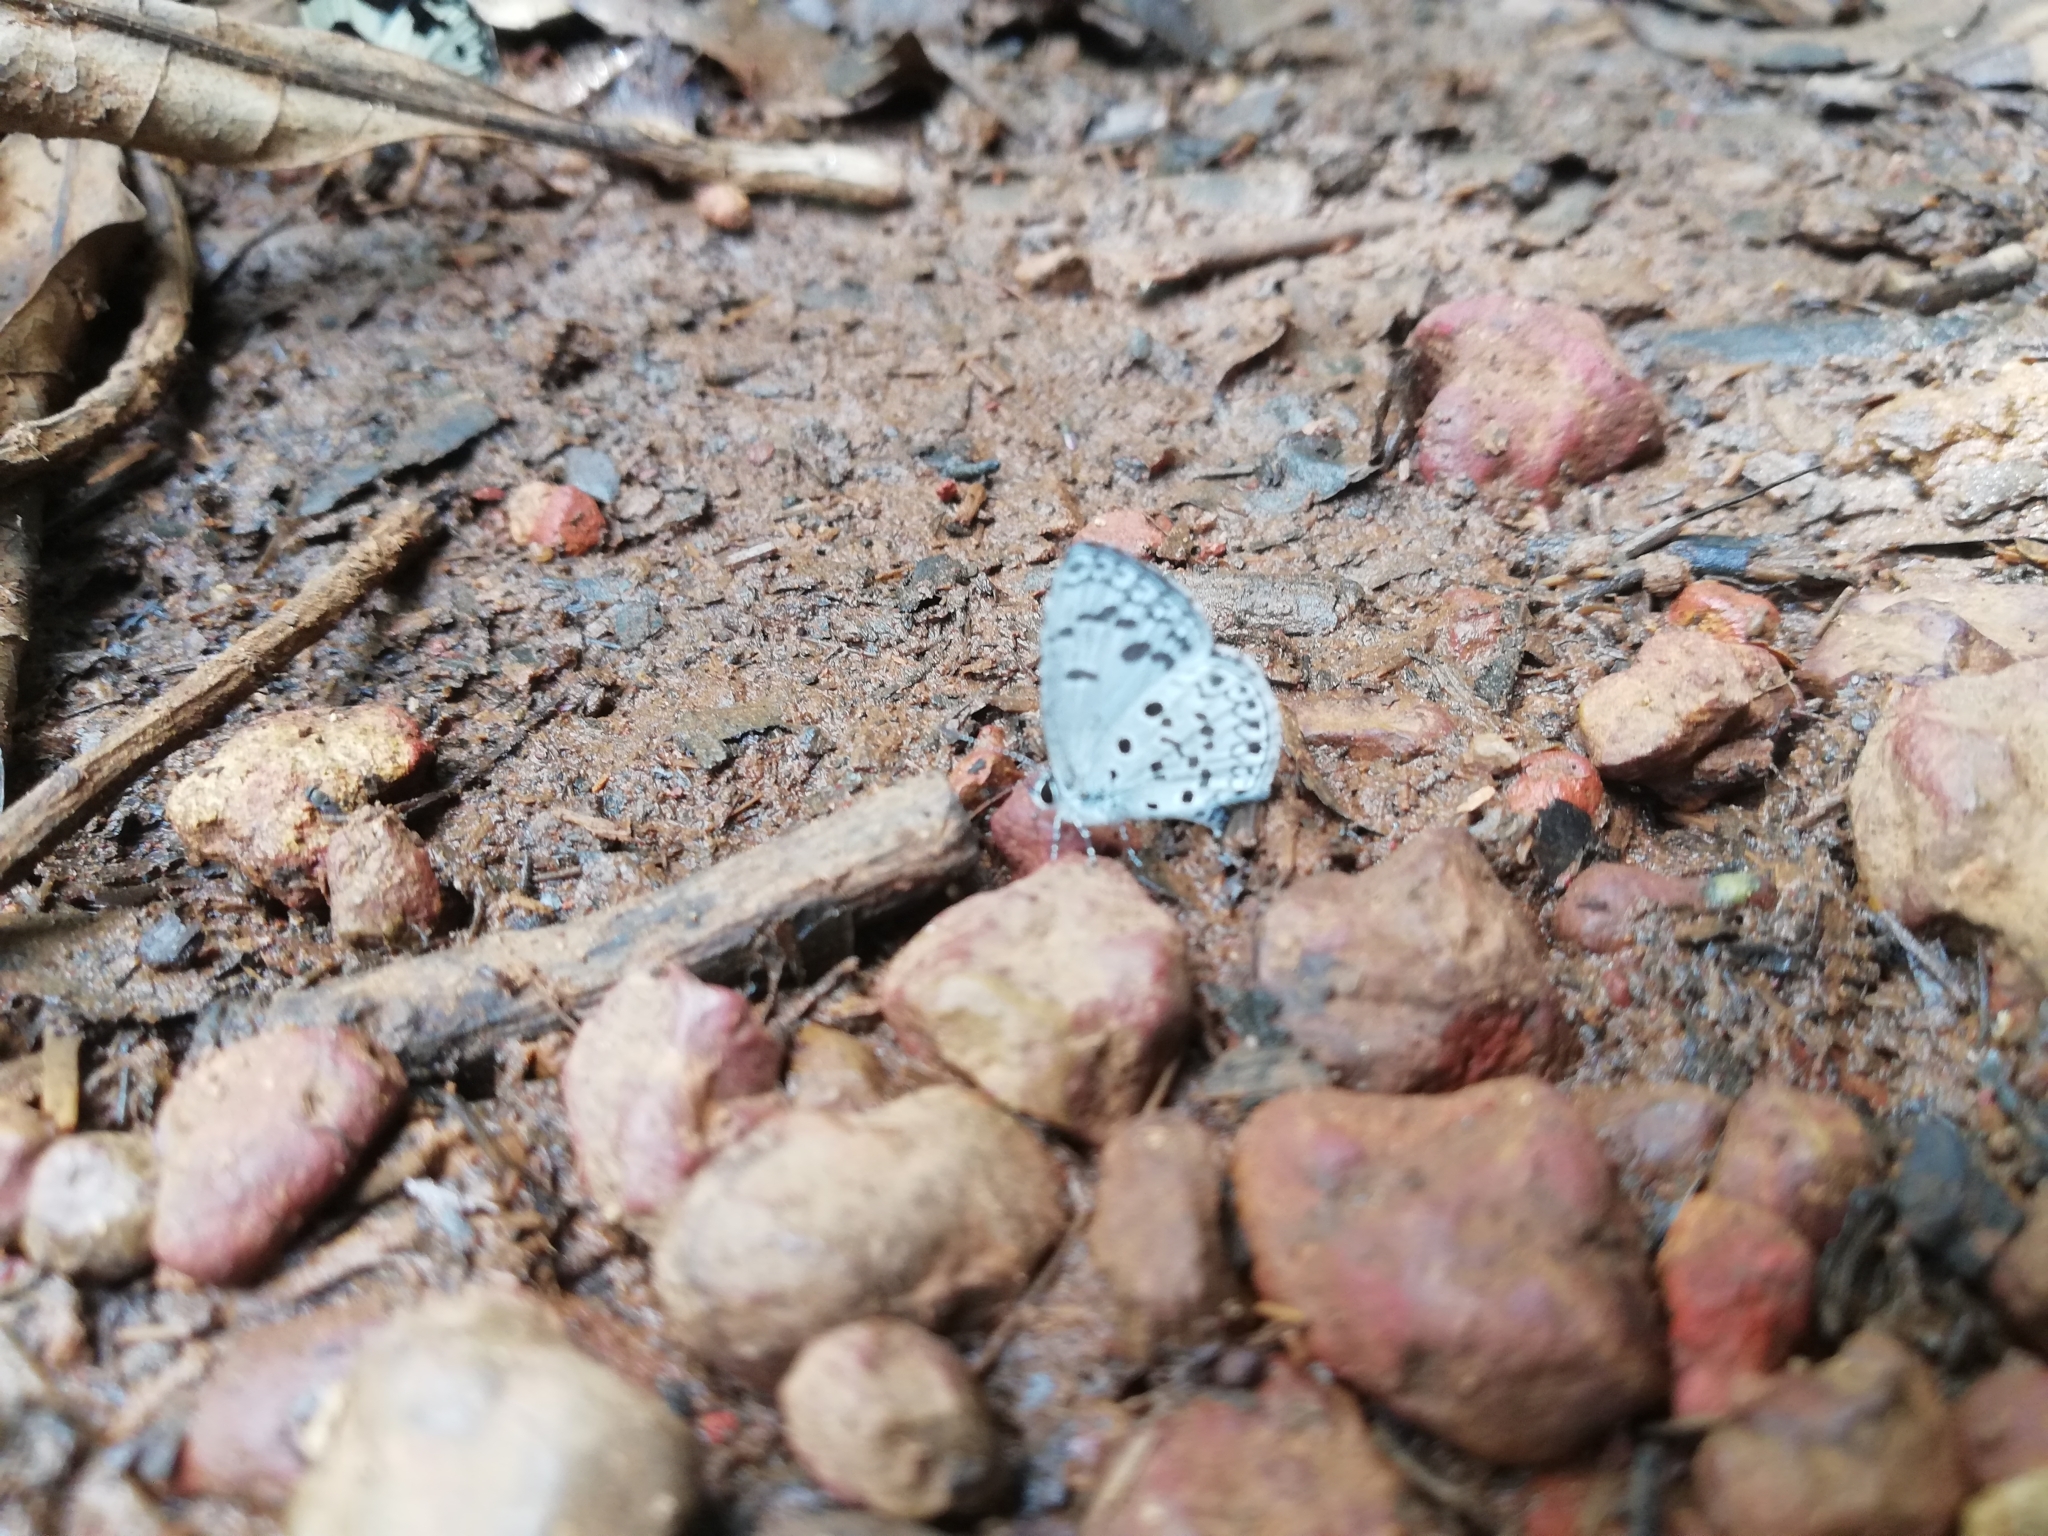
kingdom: Animalia
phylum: Arthropoda
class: Insecta
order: Lepidoptera
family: Lycaenidae
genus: Acytolepis
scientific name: Acytolepis puspa
